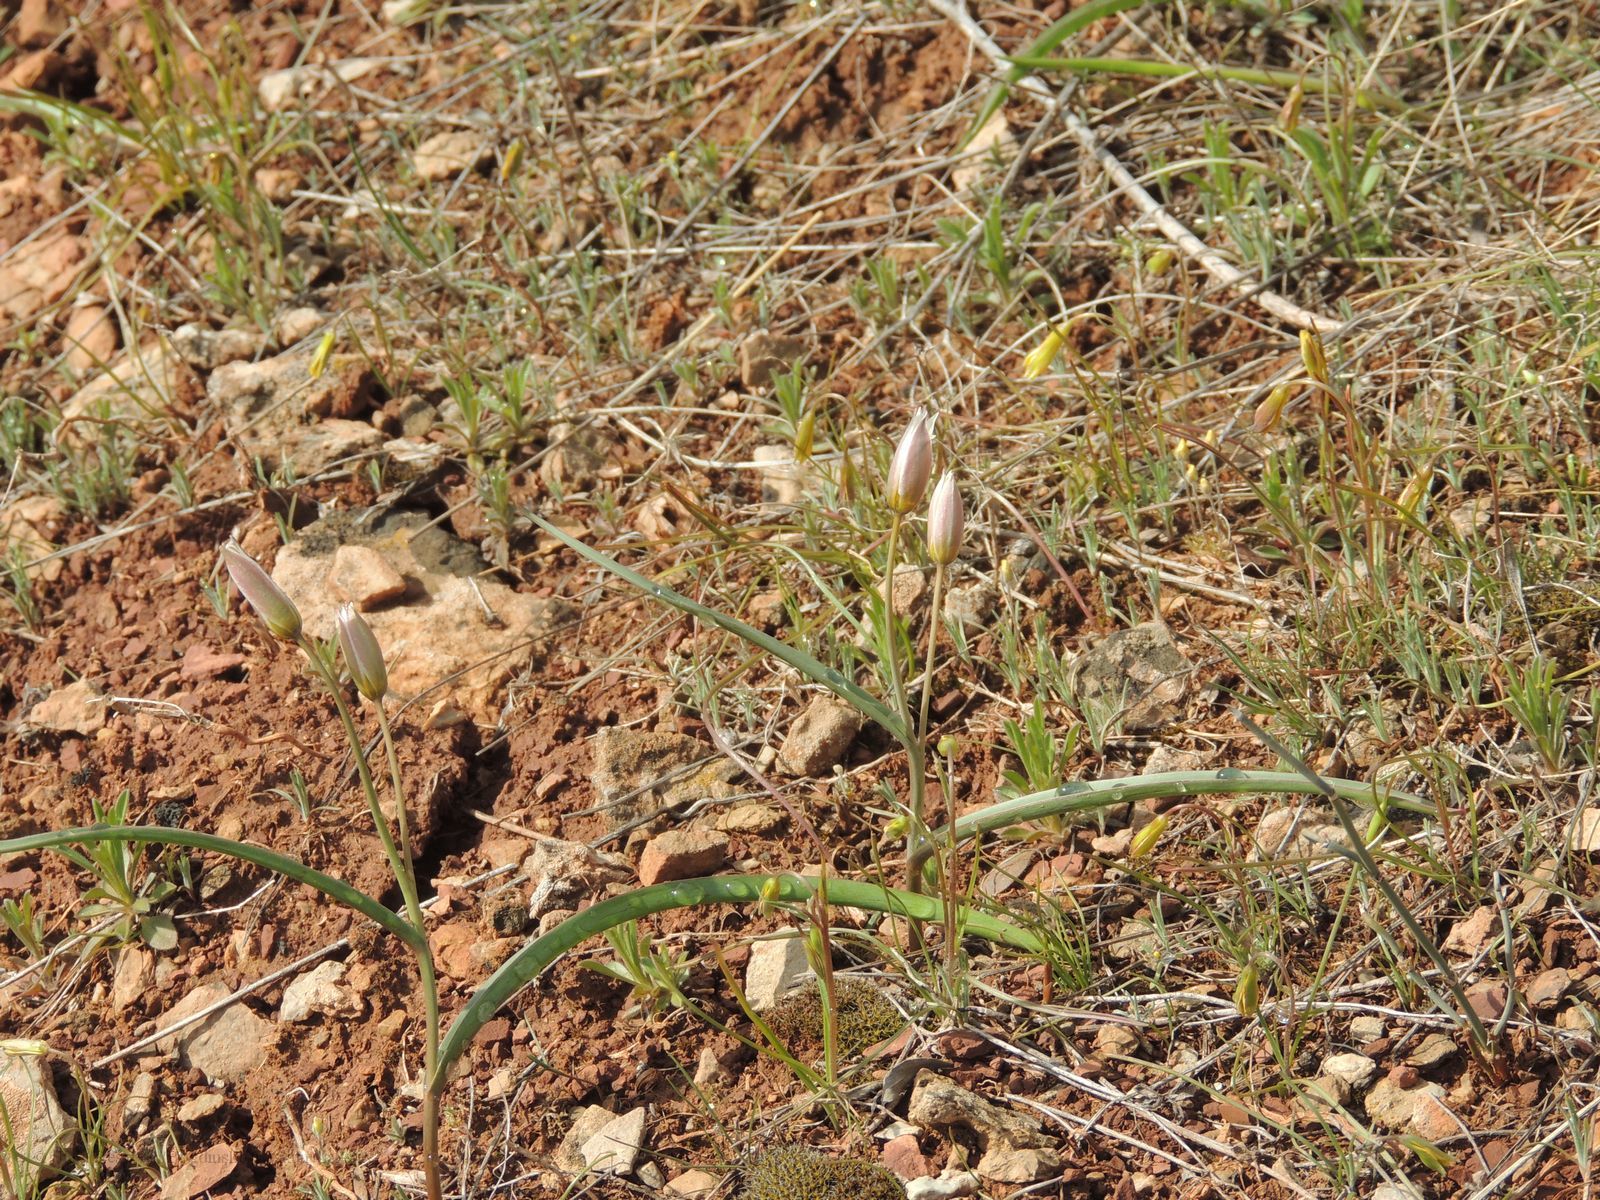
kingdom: Plantae
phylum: Tracheophyta
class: Liliopsida
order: Liliales
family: Liliaceae
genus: Tulipa
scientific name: Tulipa biflora
